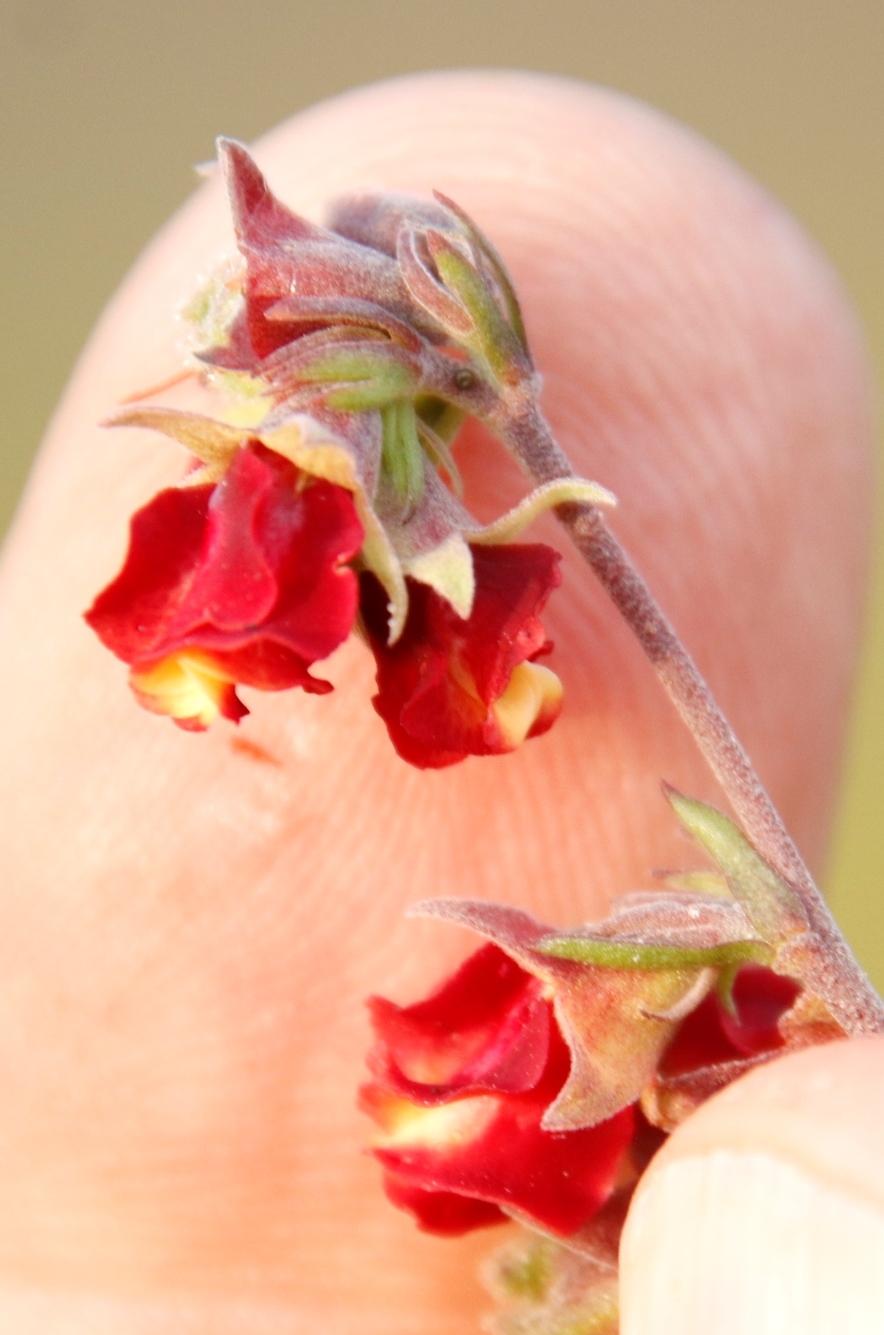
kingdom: Plantae
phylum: Tracheophyta
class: Magnoliopsida
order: Malvales
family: Malvaceae
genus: Hermannia
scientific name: Hermannia filifolia
